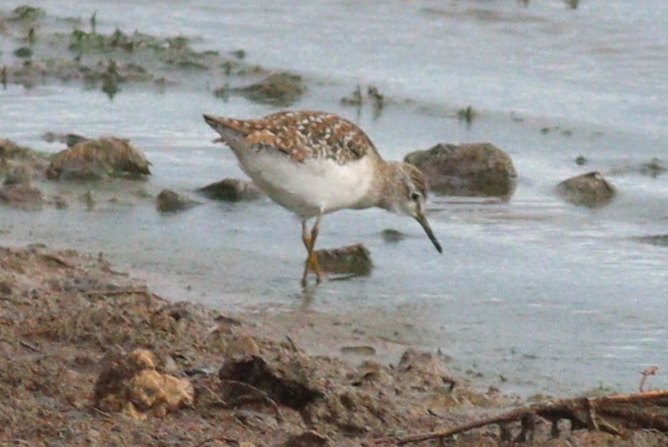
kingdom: Animalia
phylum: Chordata
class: Aves
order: Charadriiformes
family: Scolopacidae
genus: Tringa
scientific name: Tringa glareola
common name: Wood sandpiper
